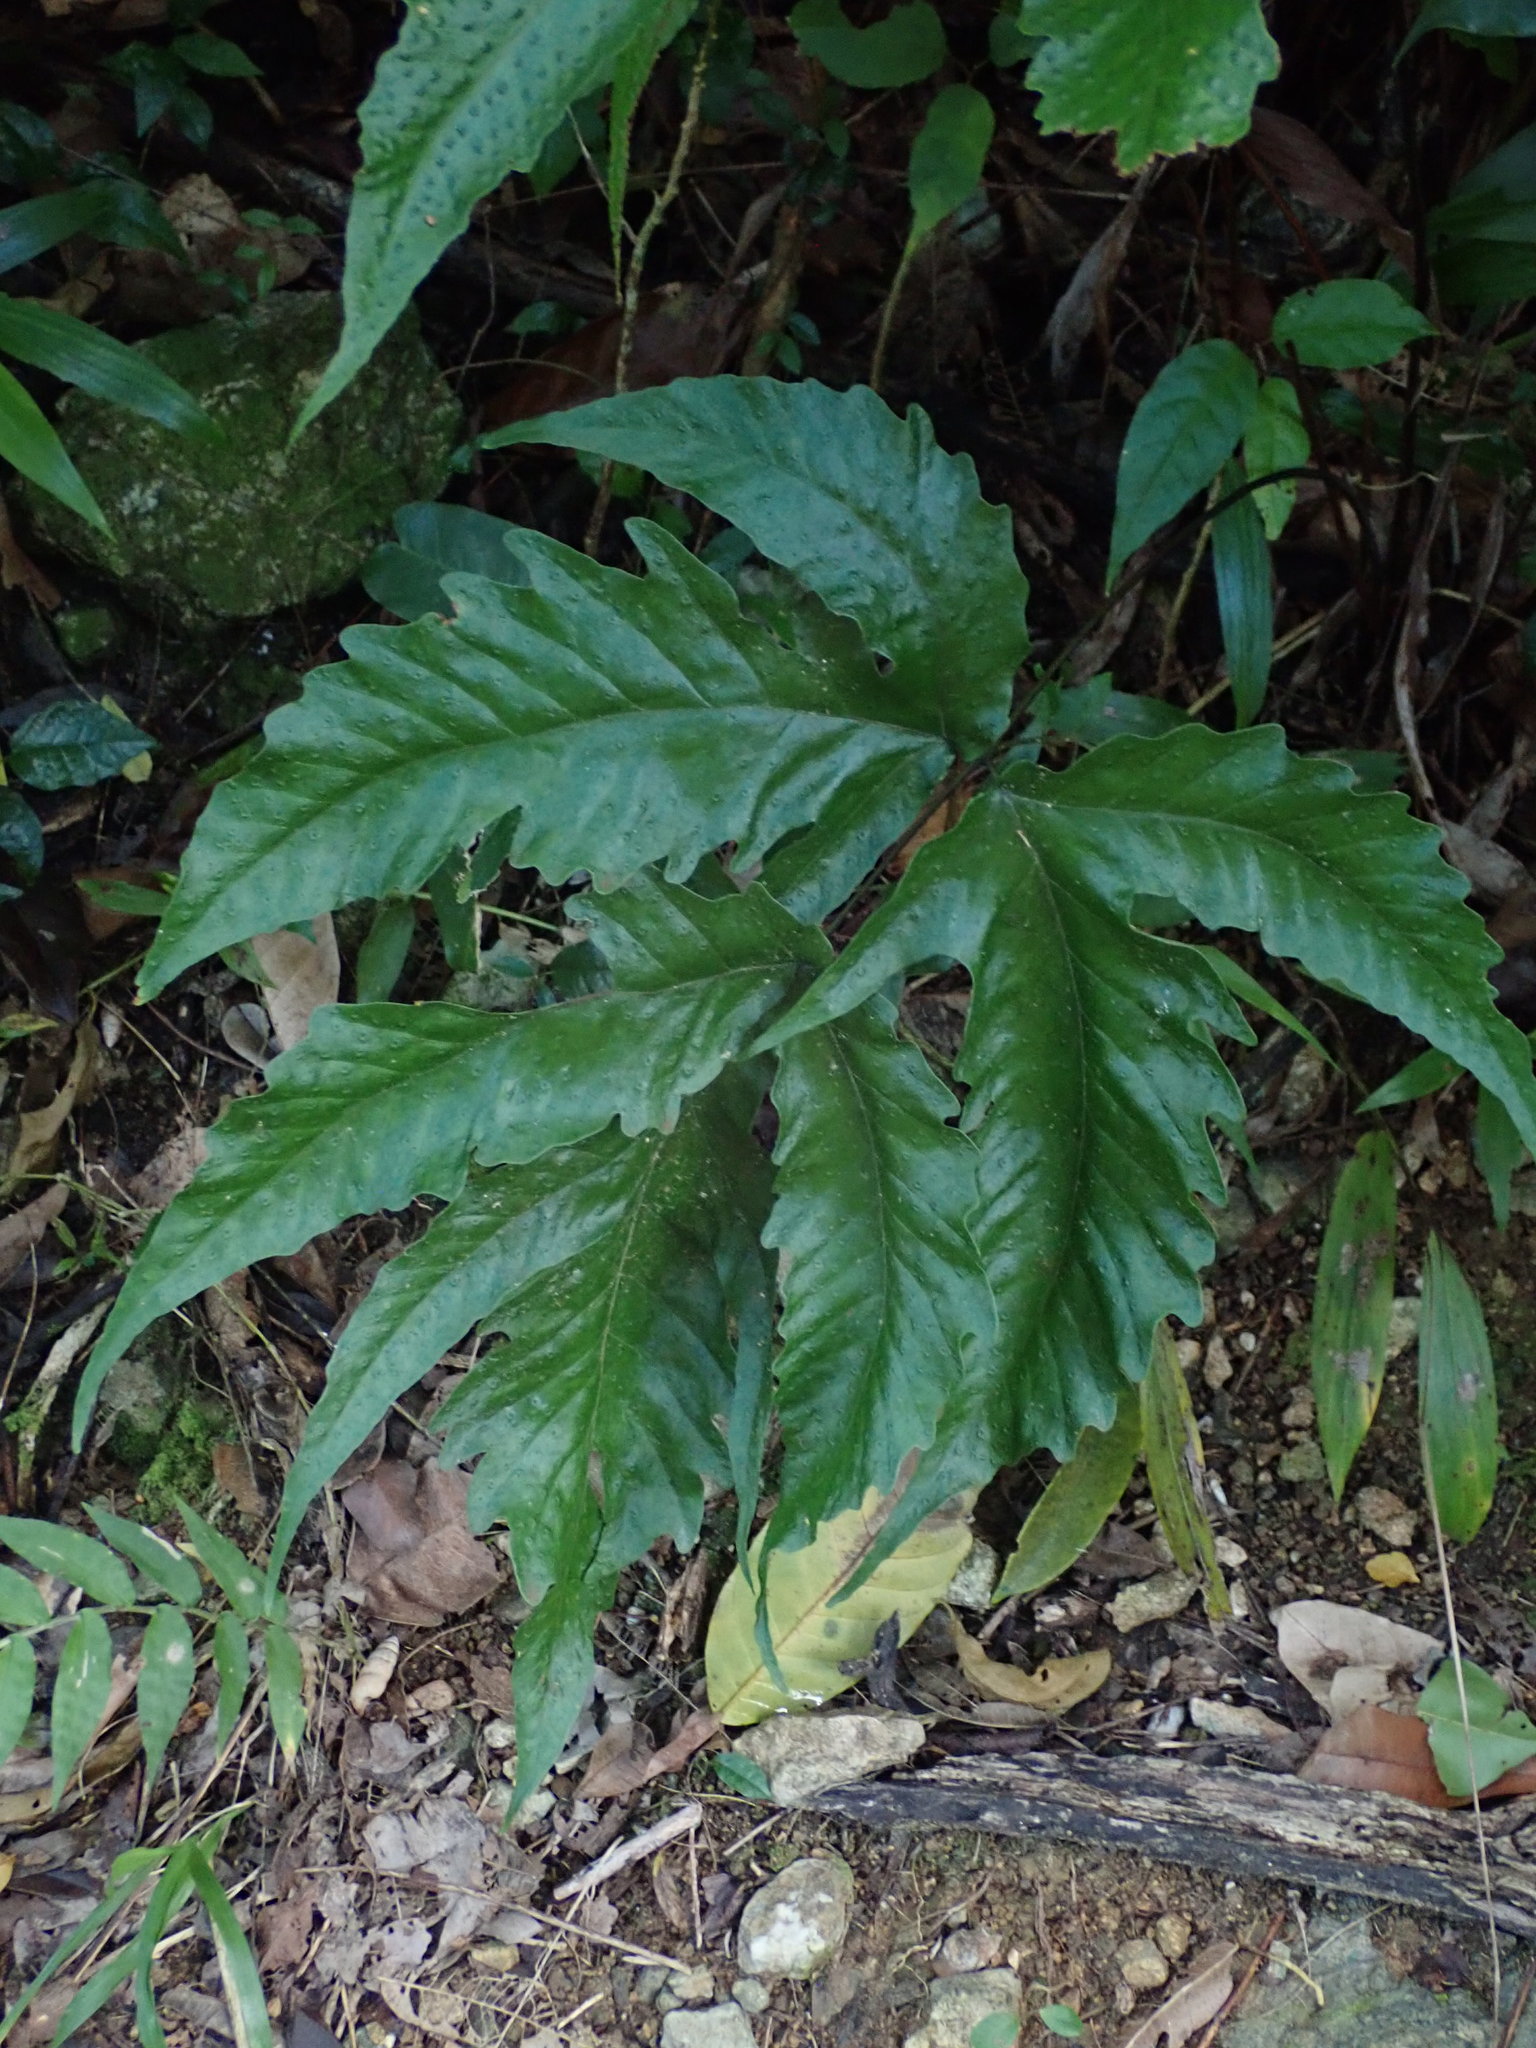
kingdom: Plantae
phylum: Tracheophyta
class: Polypodiopsida
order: Polypodiales
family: Tectariaceae
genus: Tectaria
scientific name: Tectaria heracleifolia
